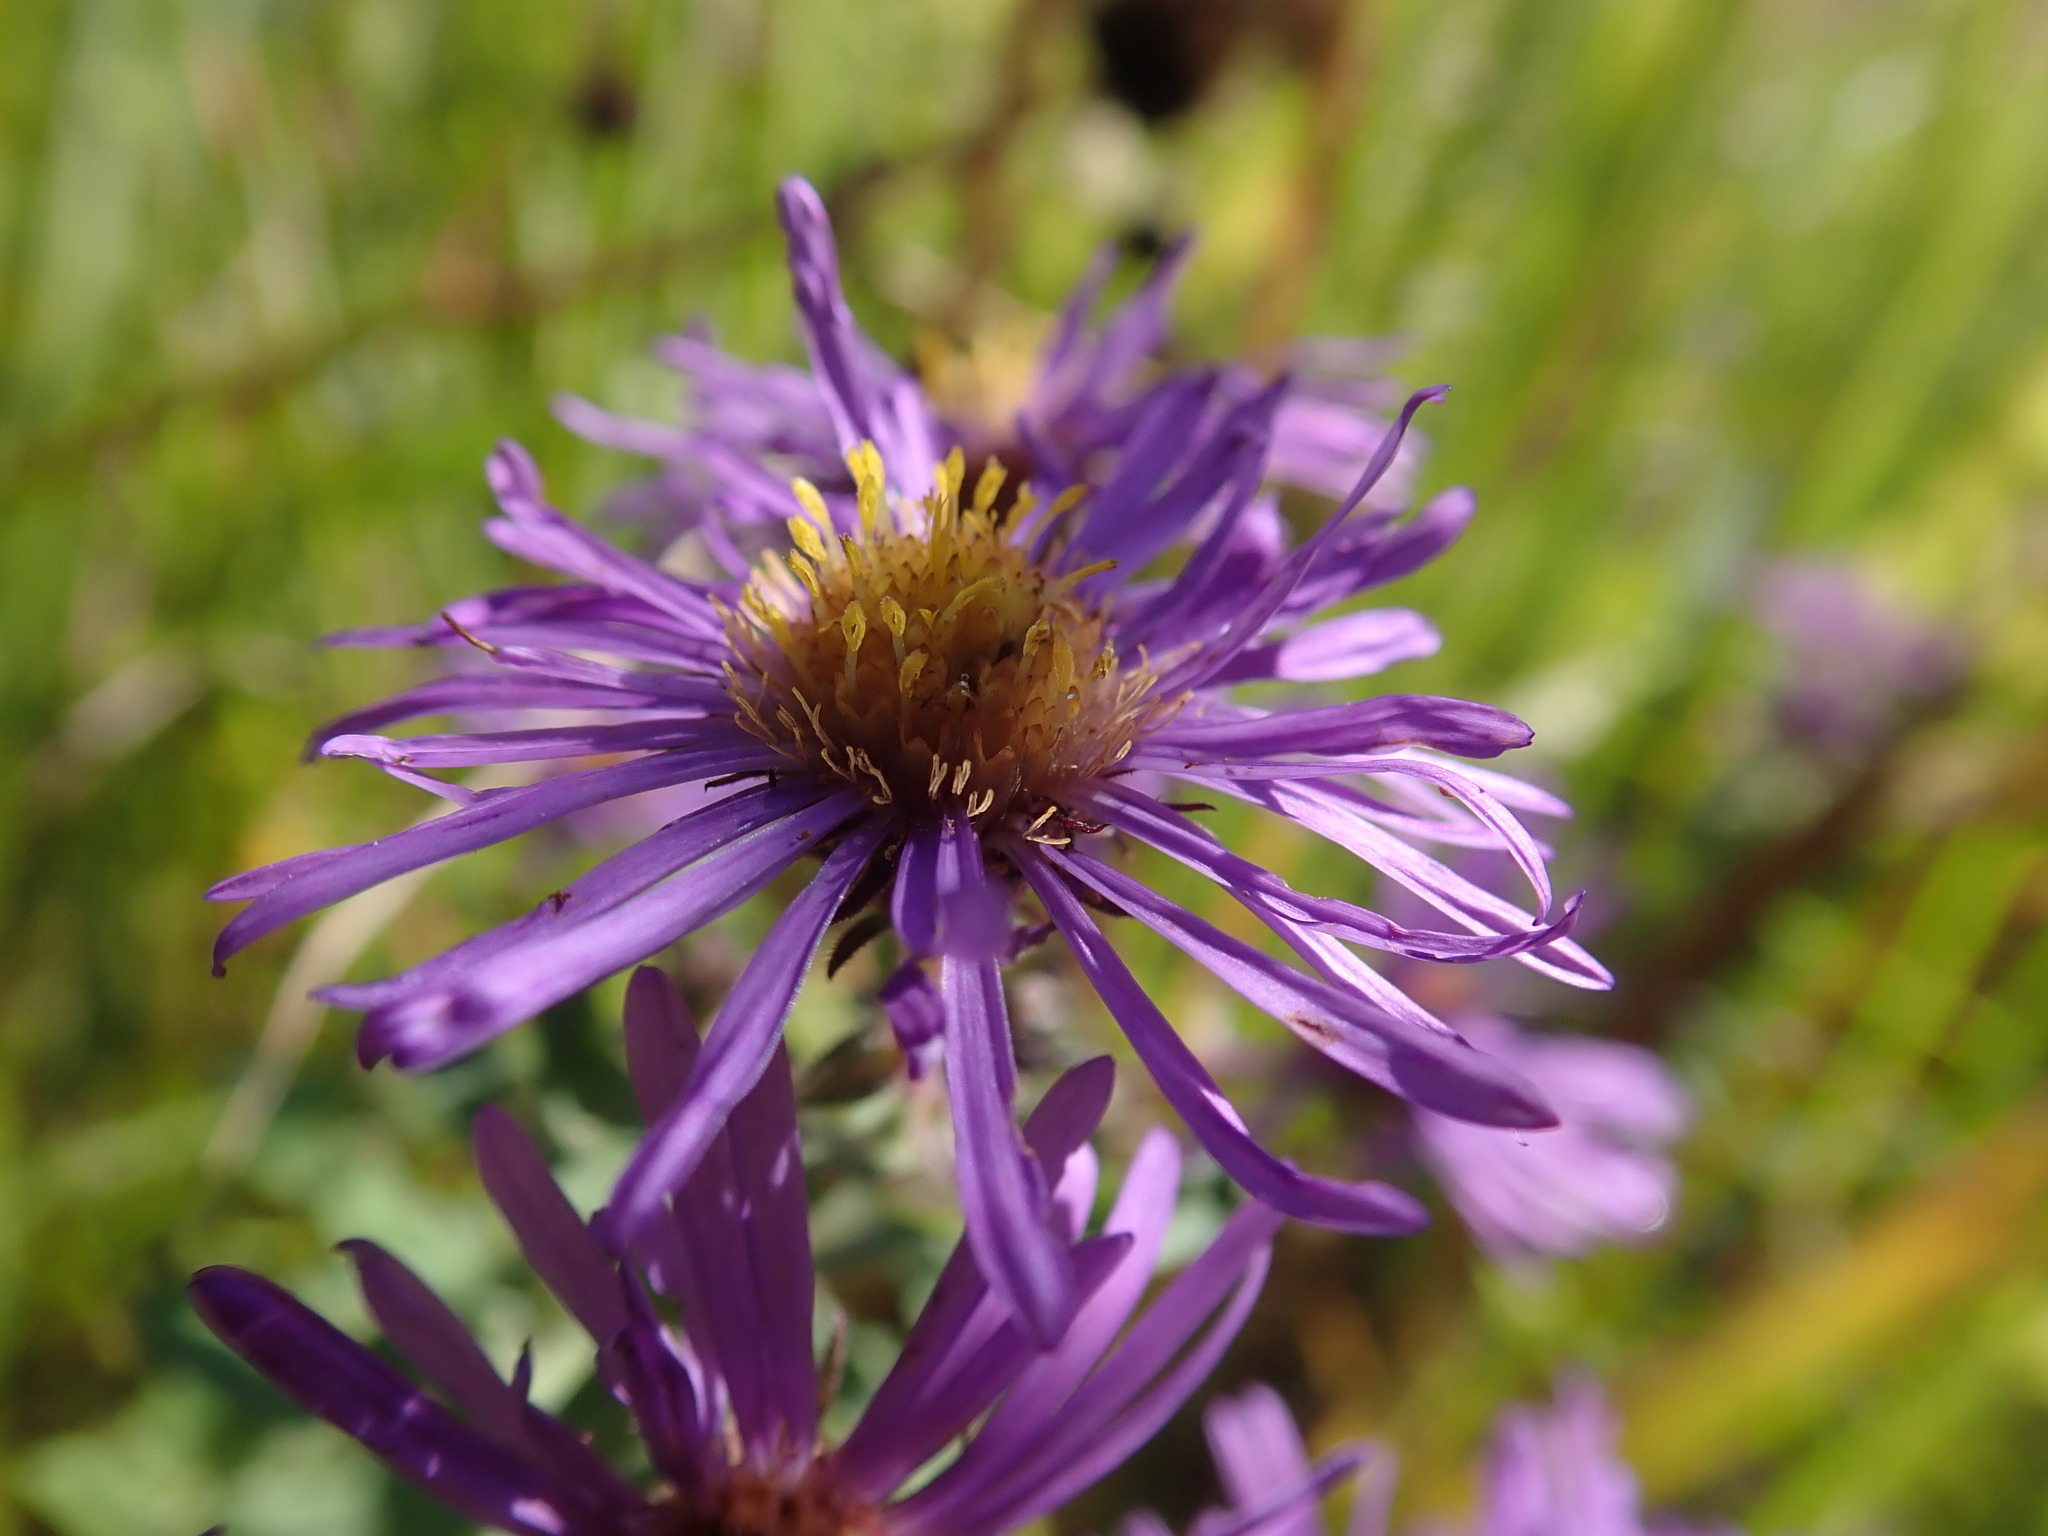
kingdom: Plantae
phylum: Tracheophyta
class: Magnoliopsida
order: Asterales
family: Asteraceae
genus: Symphyotrichum
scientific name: Symphyotrichum novae-angliae
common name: Michaelmas daisy
